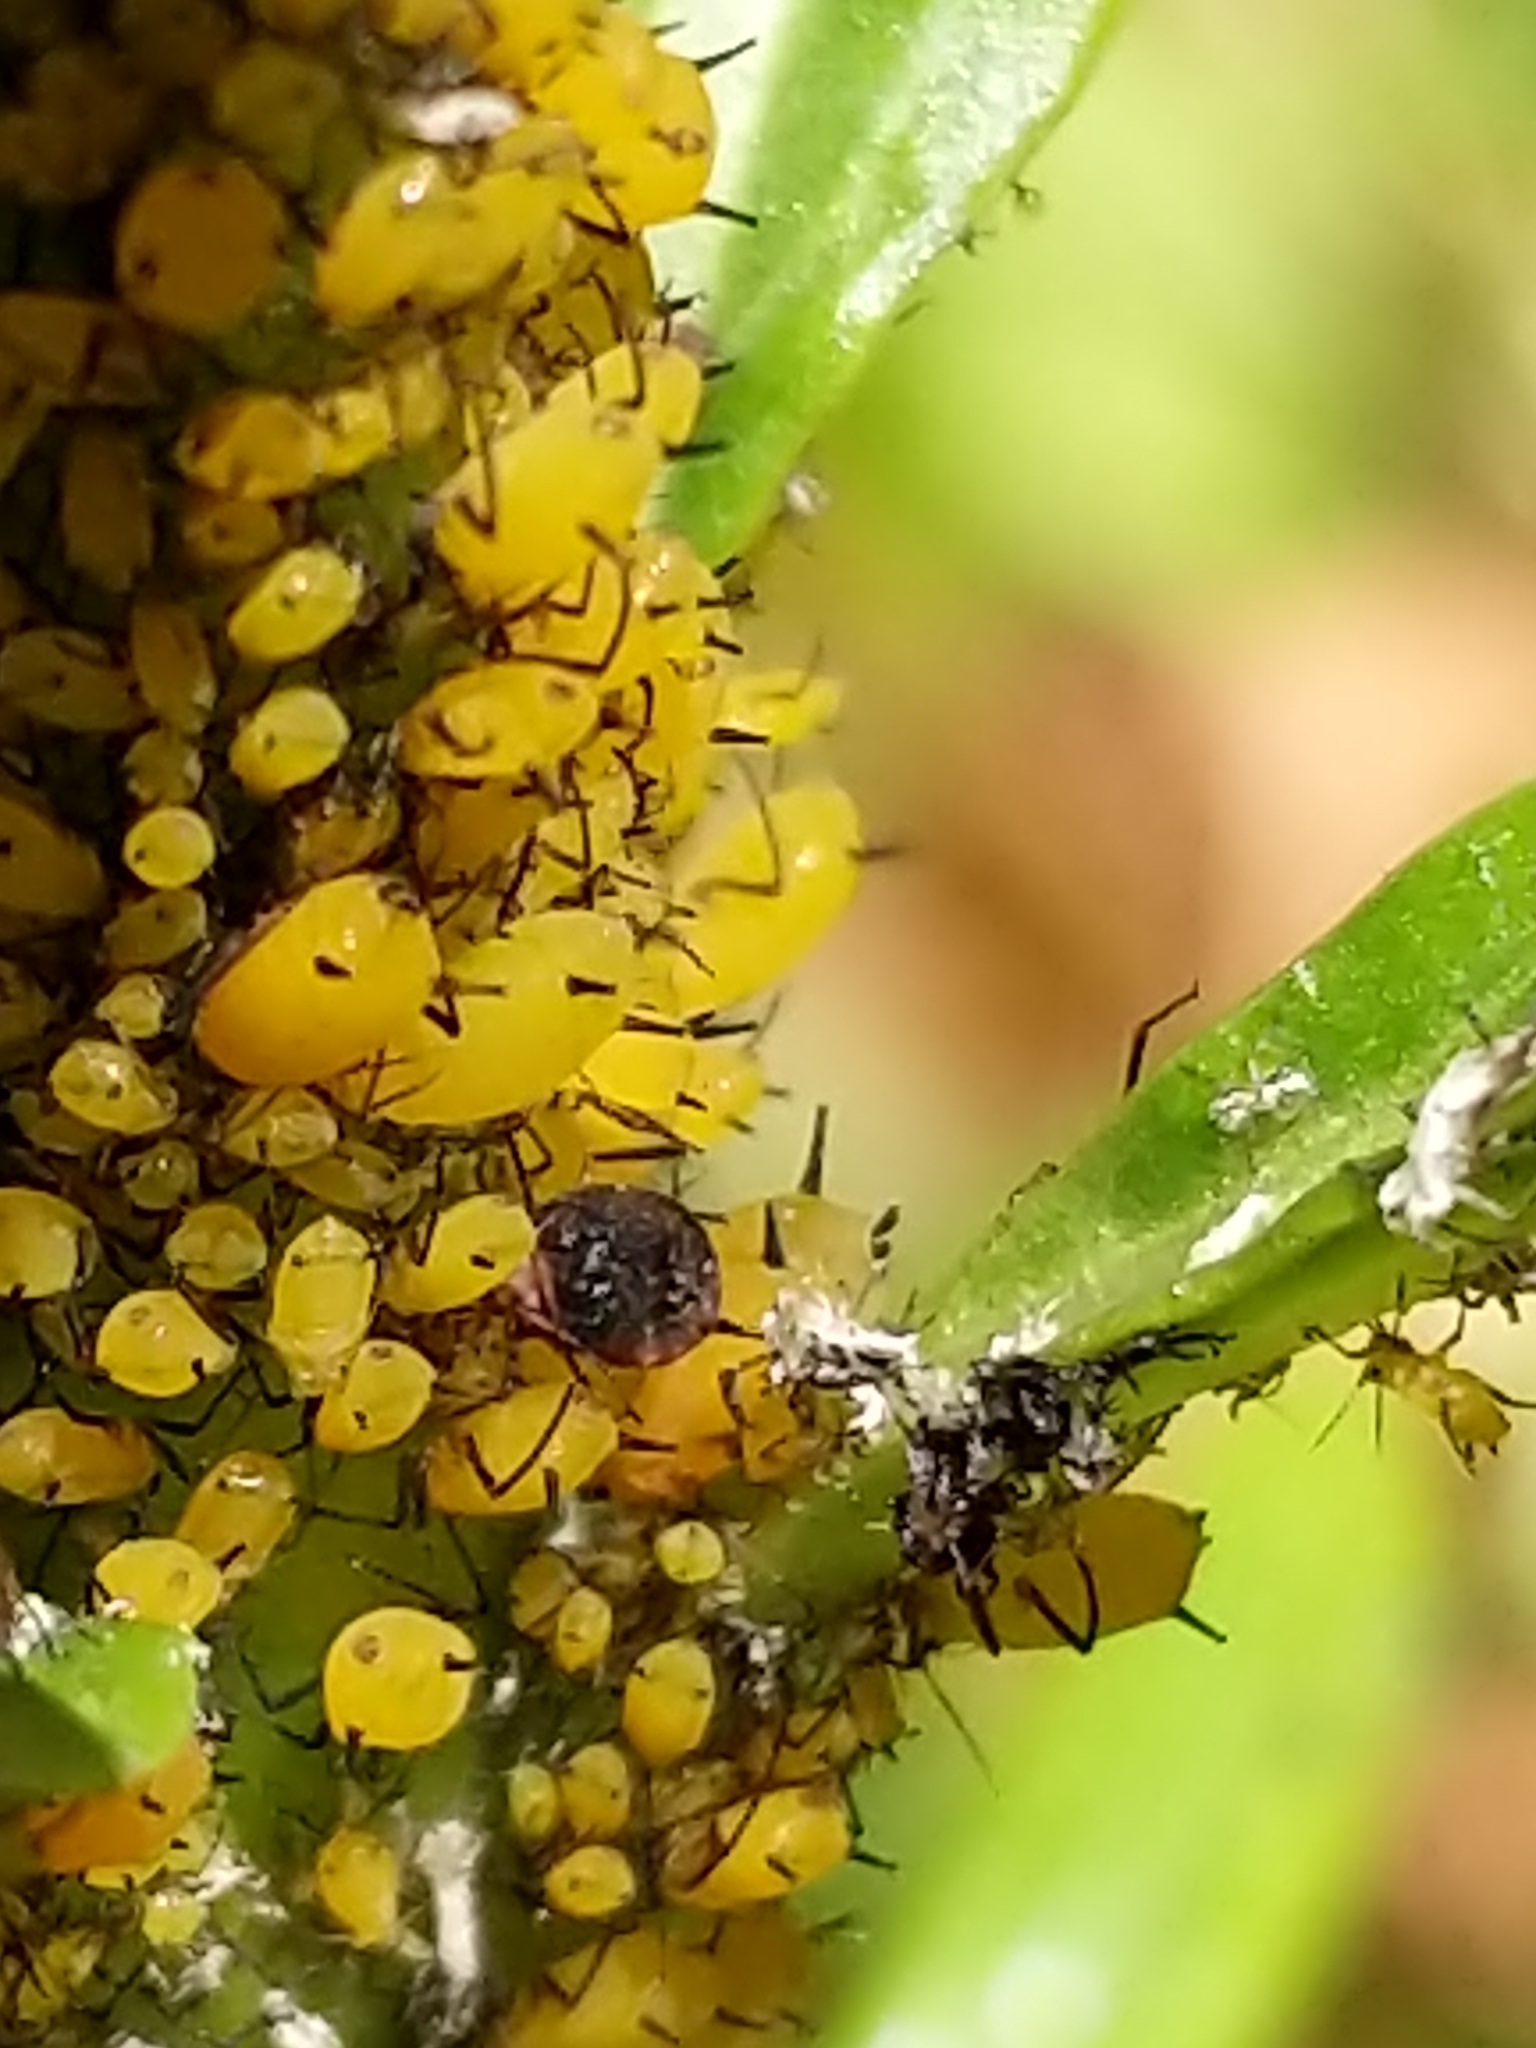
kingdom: Animalia
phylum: Arthropoda
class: Insecta
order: Hemiptera
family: Aphididae
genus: Aphis
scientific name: Aphis nerii
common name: Oleander aphid
